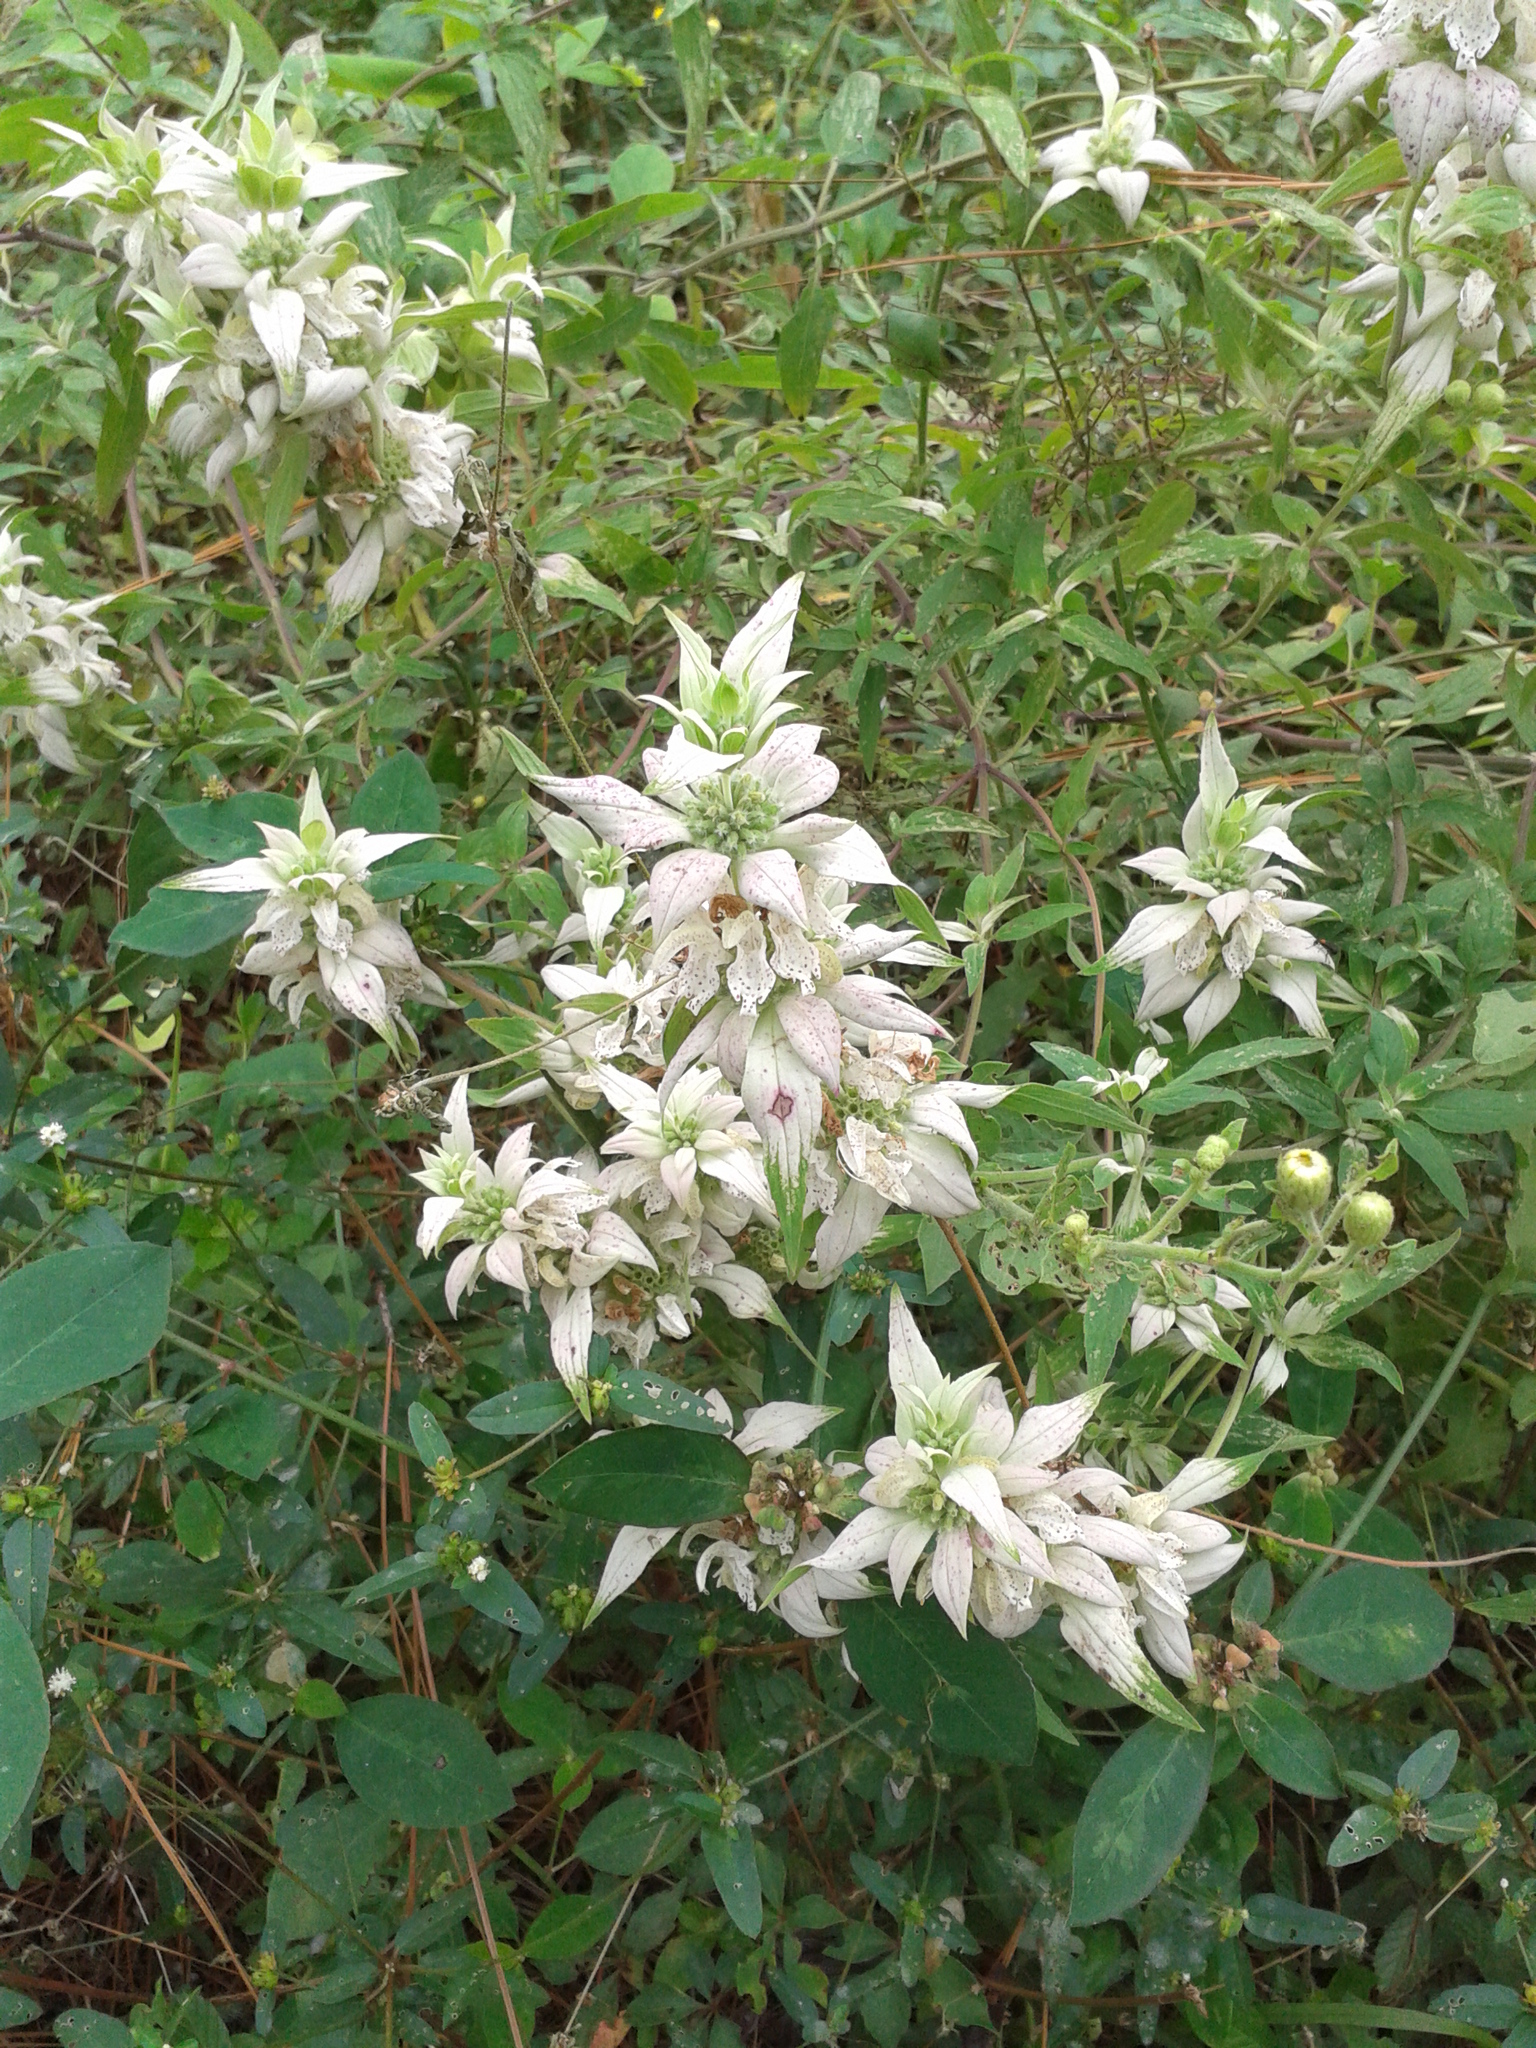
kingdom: Plantae
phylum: Tracheophyta
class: Magnoliopsida
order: Lamiales
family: Lamiaceae
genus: Monarda
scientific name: Monarda punctata
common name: Dotted monarda
